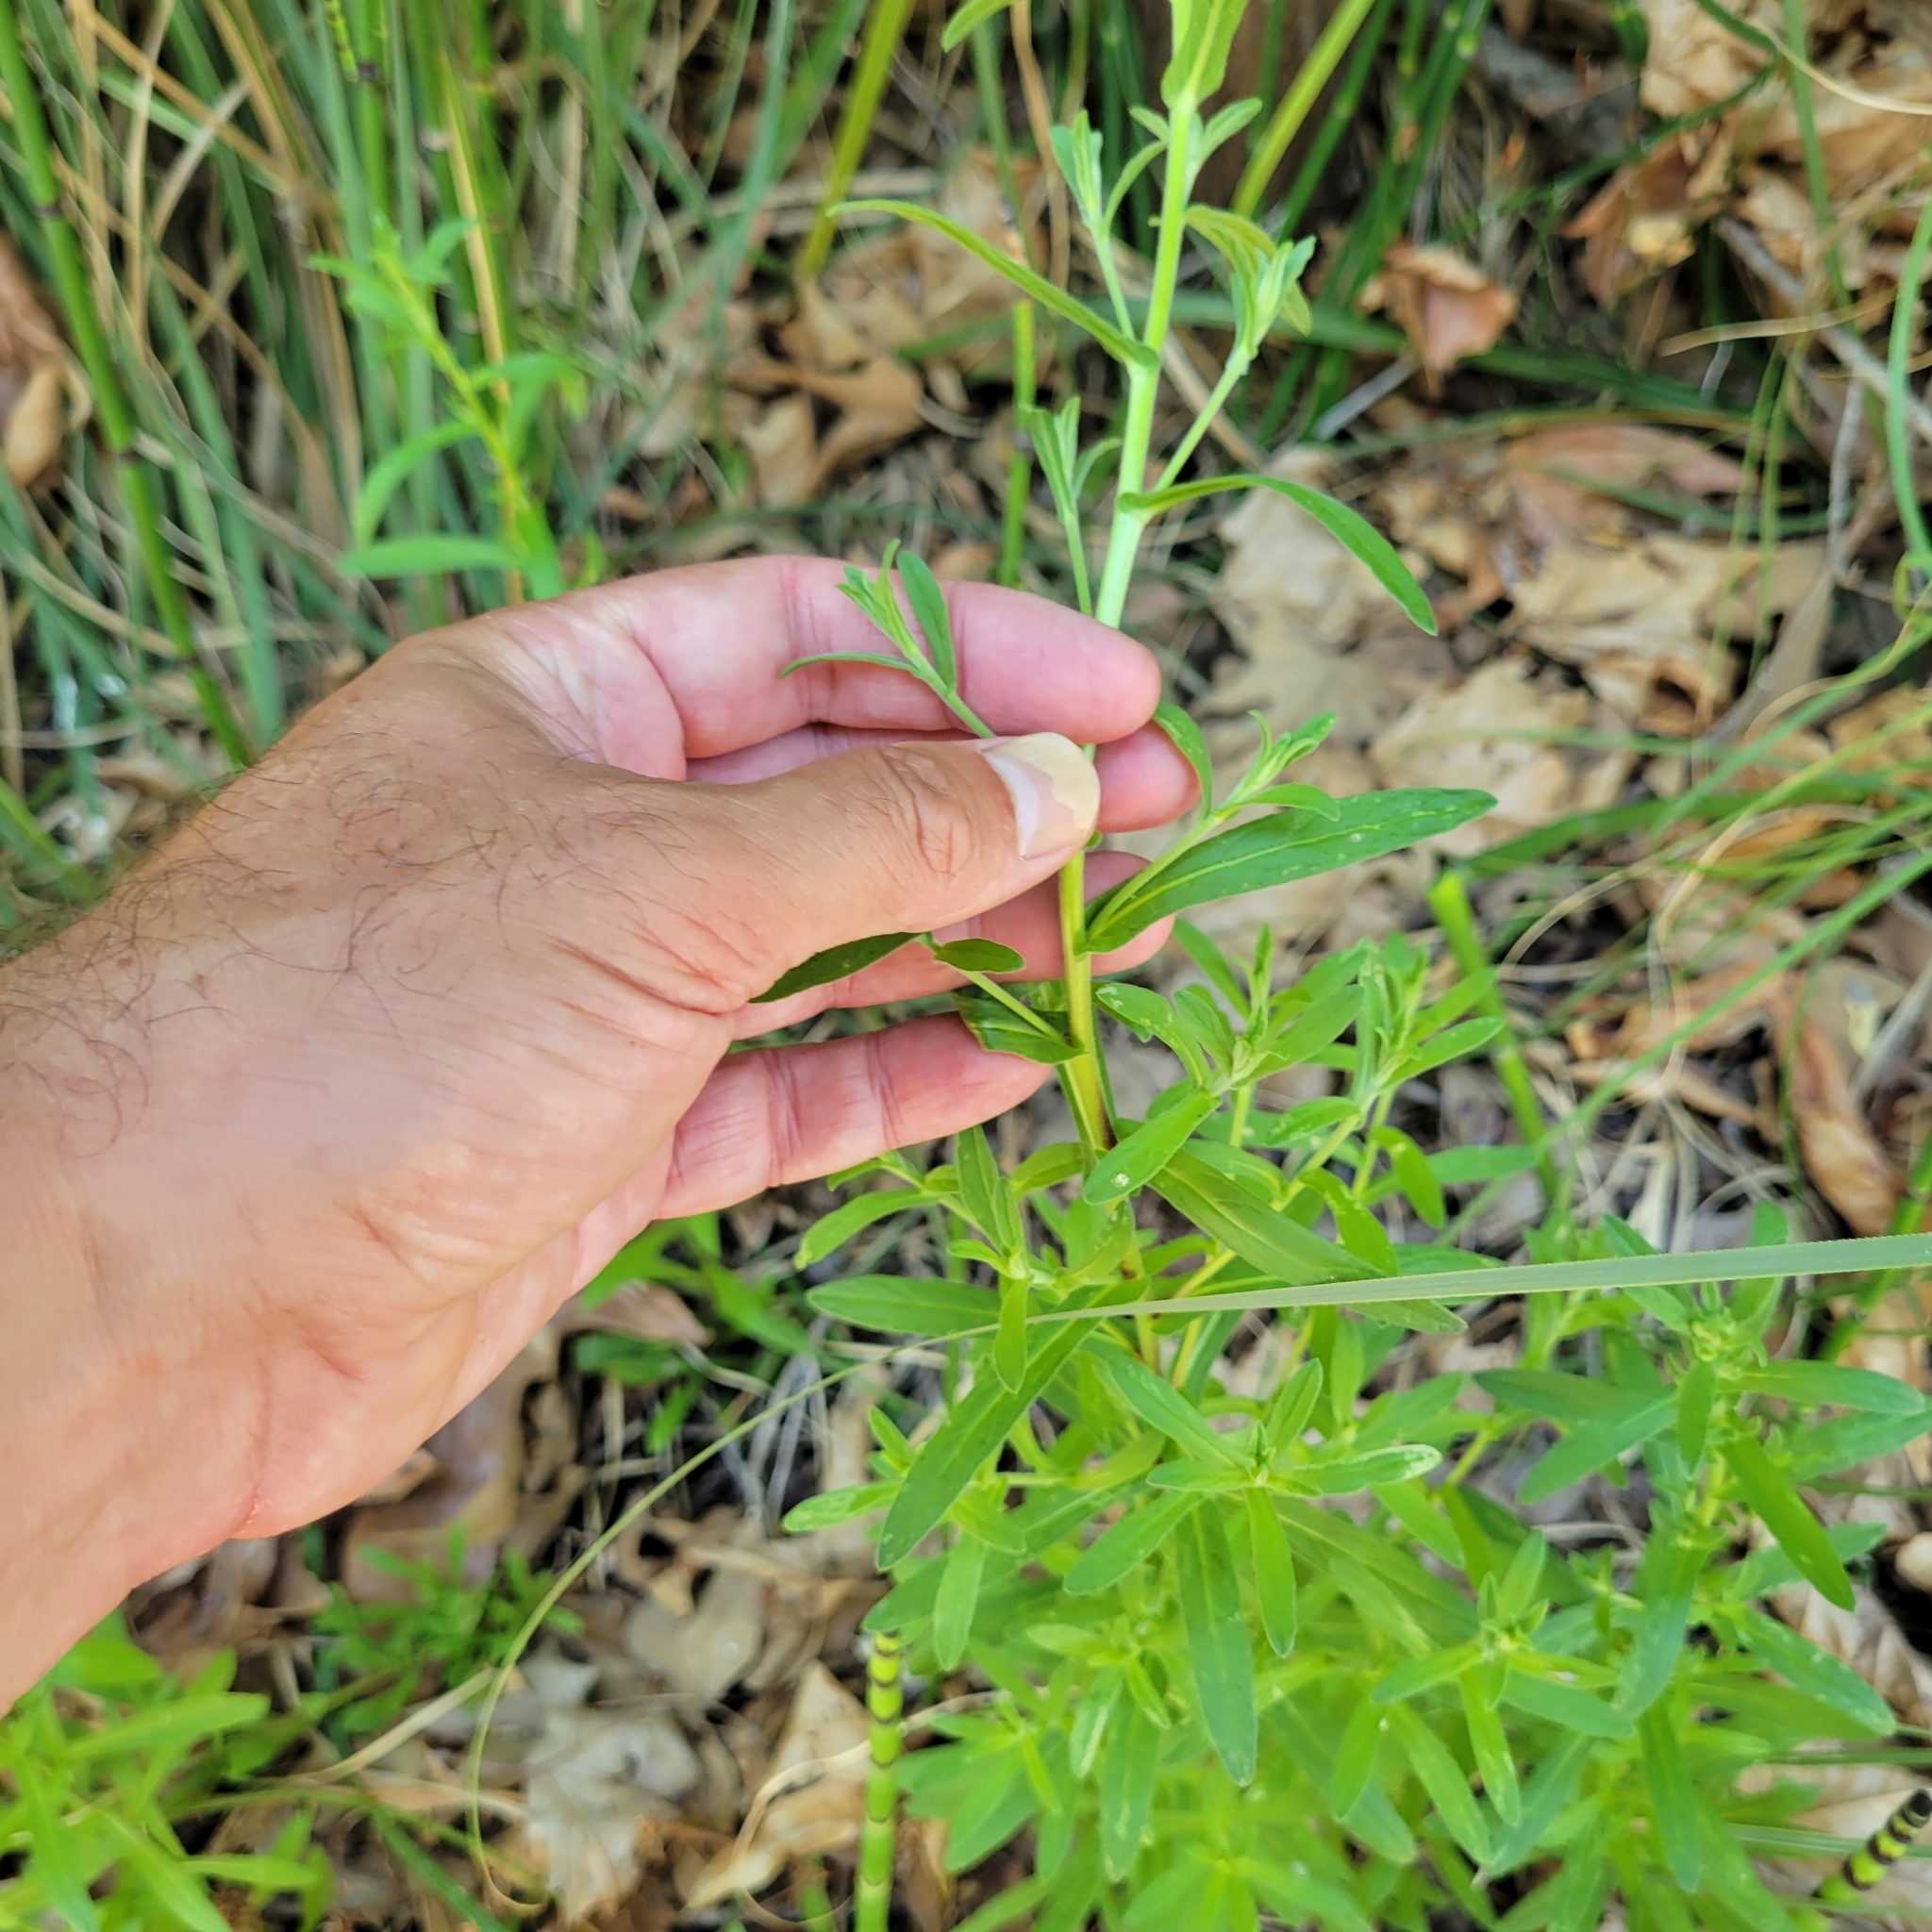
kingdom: Plantae
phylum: Tracheophyta
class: Magnoliopsida
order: Asterales
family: Asteraceae
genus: Pulicaria
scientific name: Pulicaria paludosa
